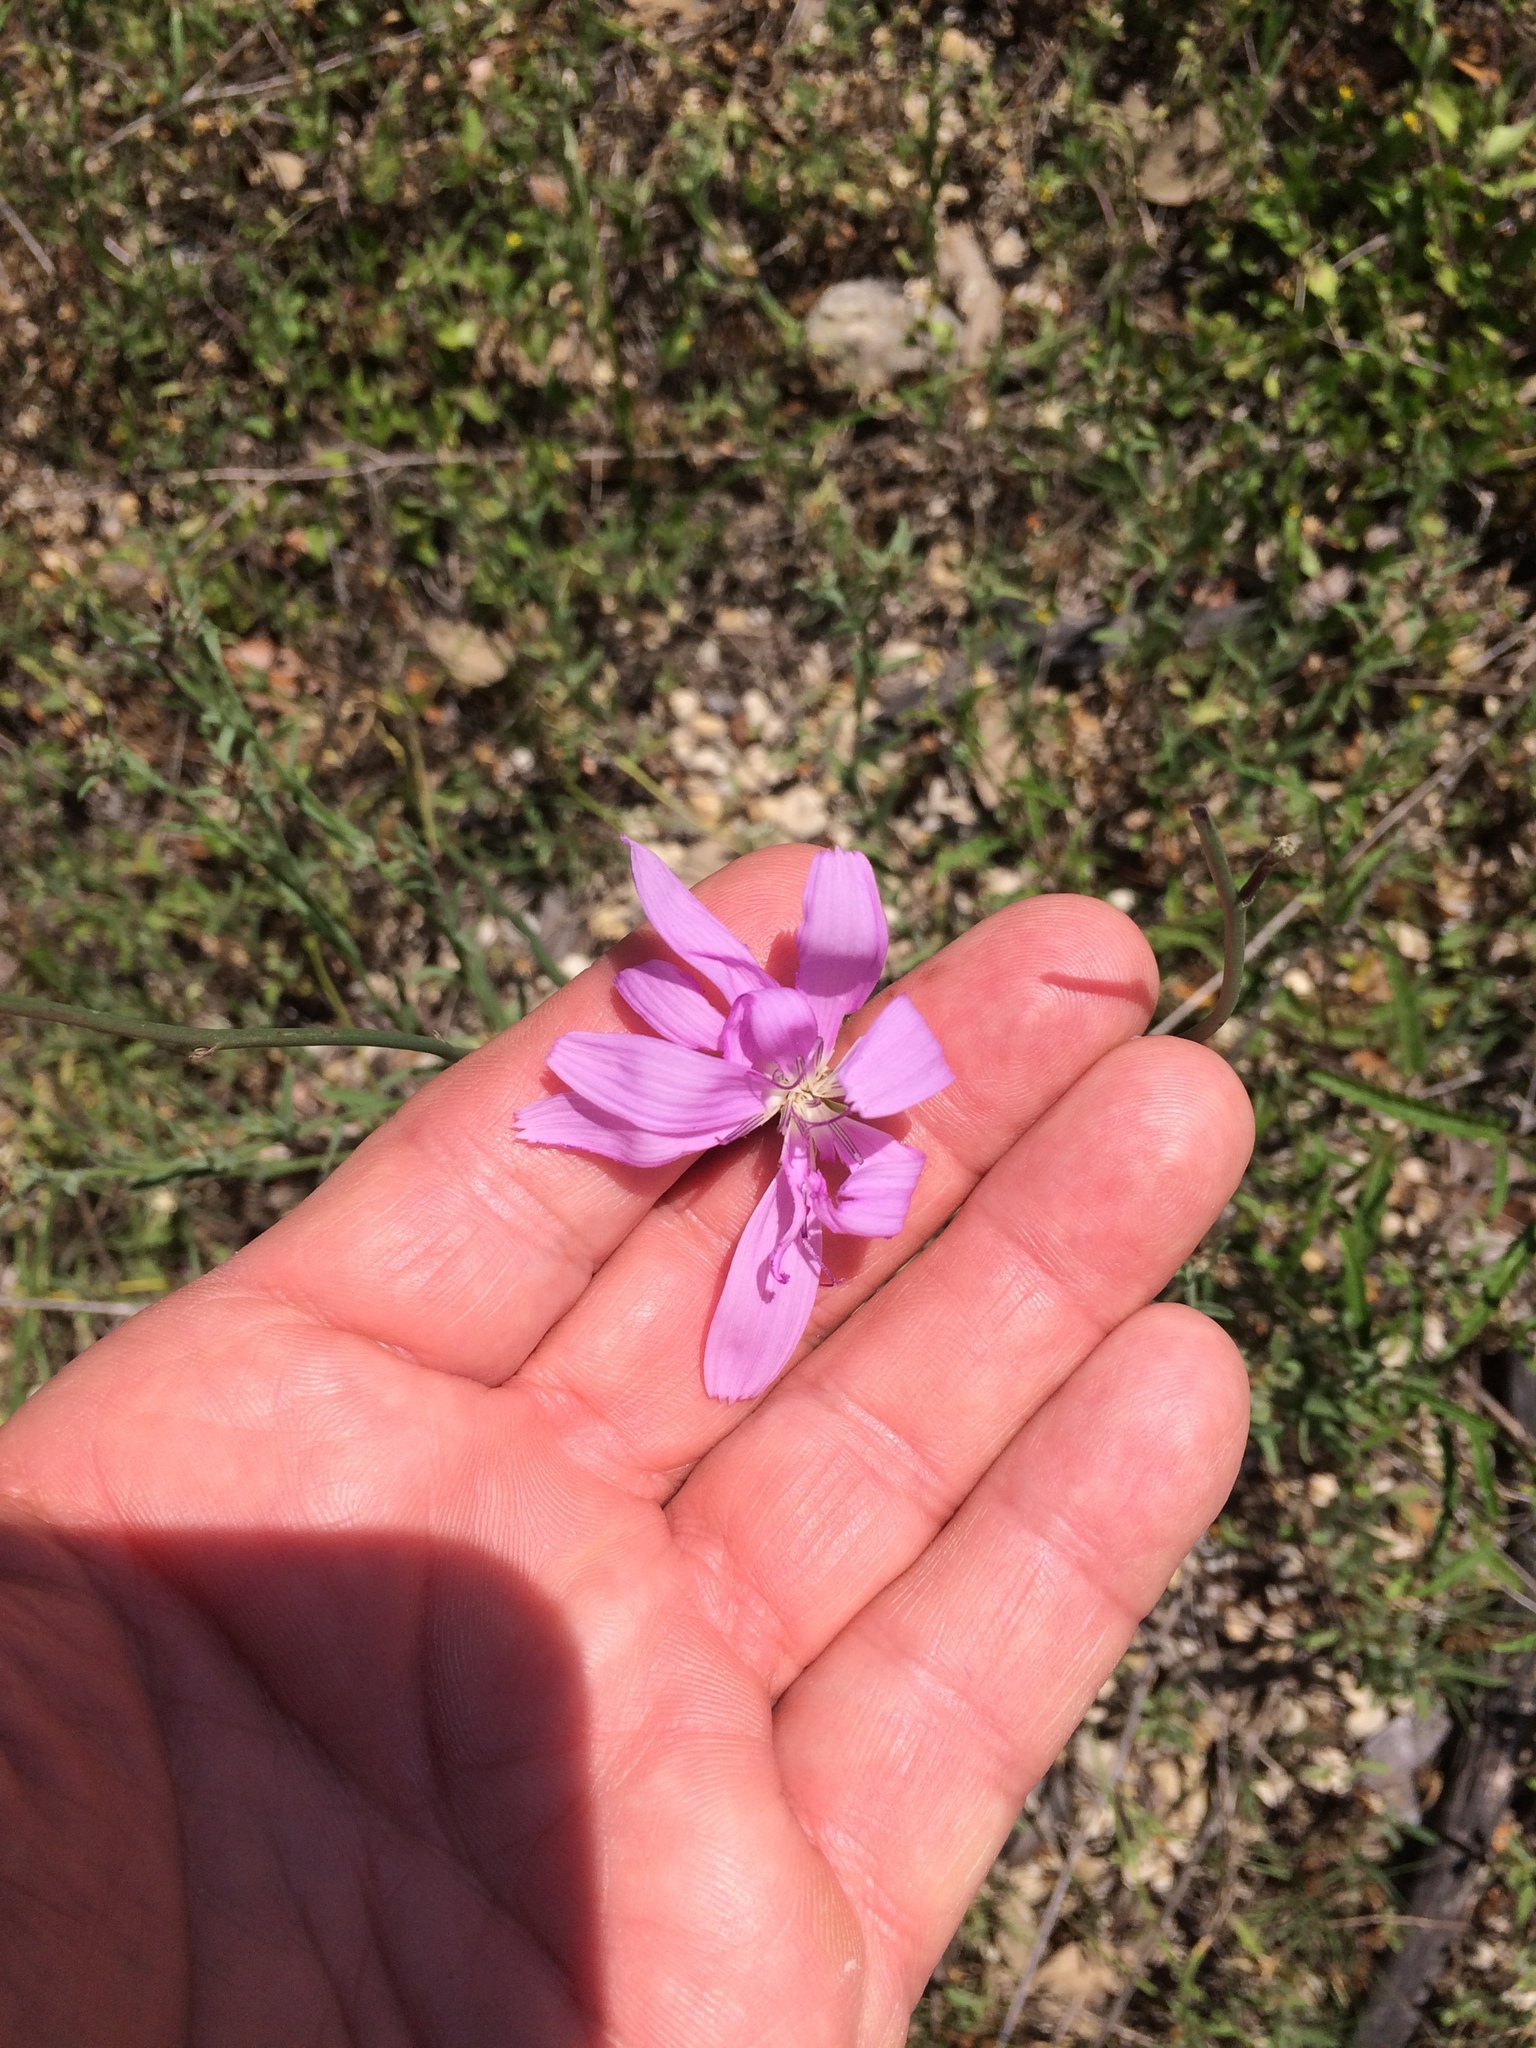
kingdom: Plantae
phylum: Tracheophyta
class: Magnoliopsida
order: Asterales
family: Asteraceae
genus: Lygodesmia
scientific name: Lygodesmia texana
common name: Texas skeleton-plant
